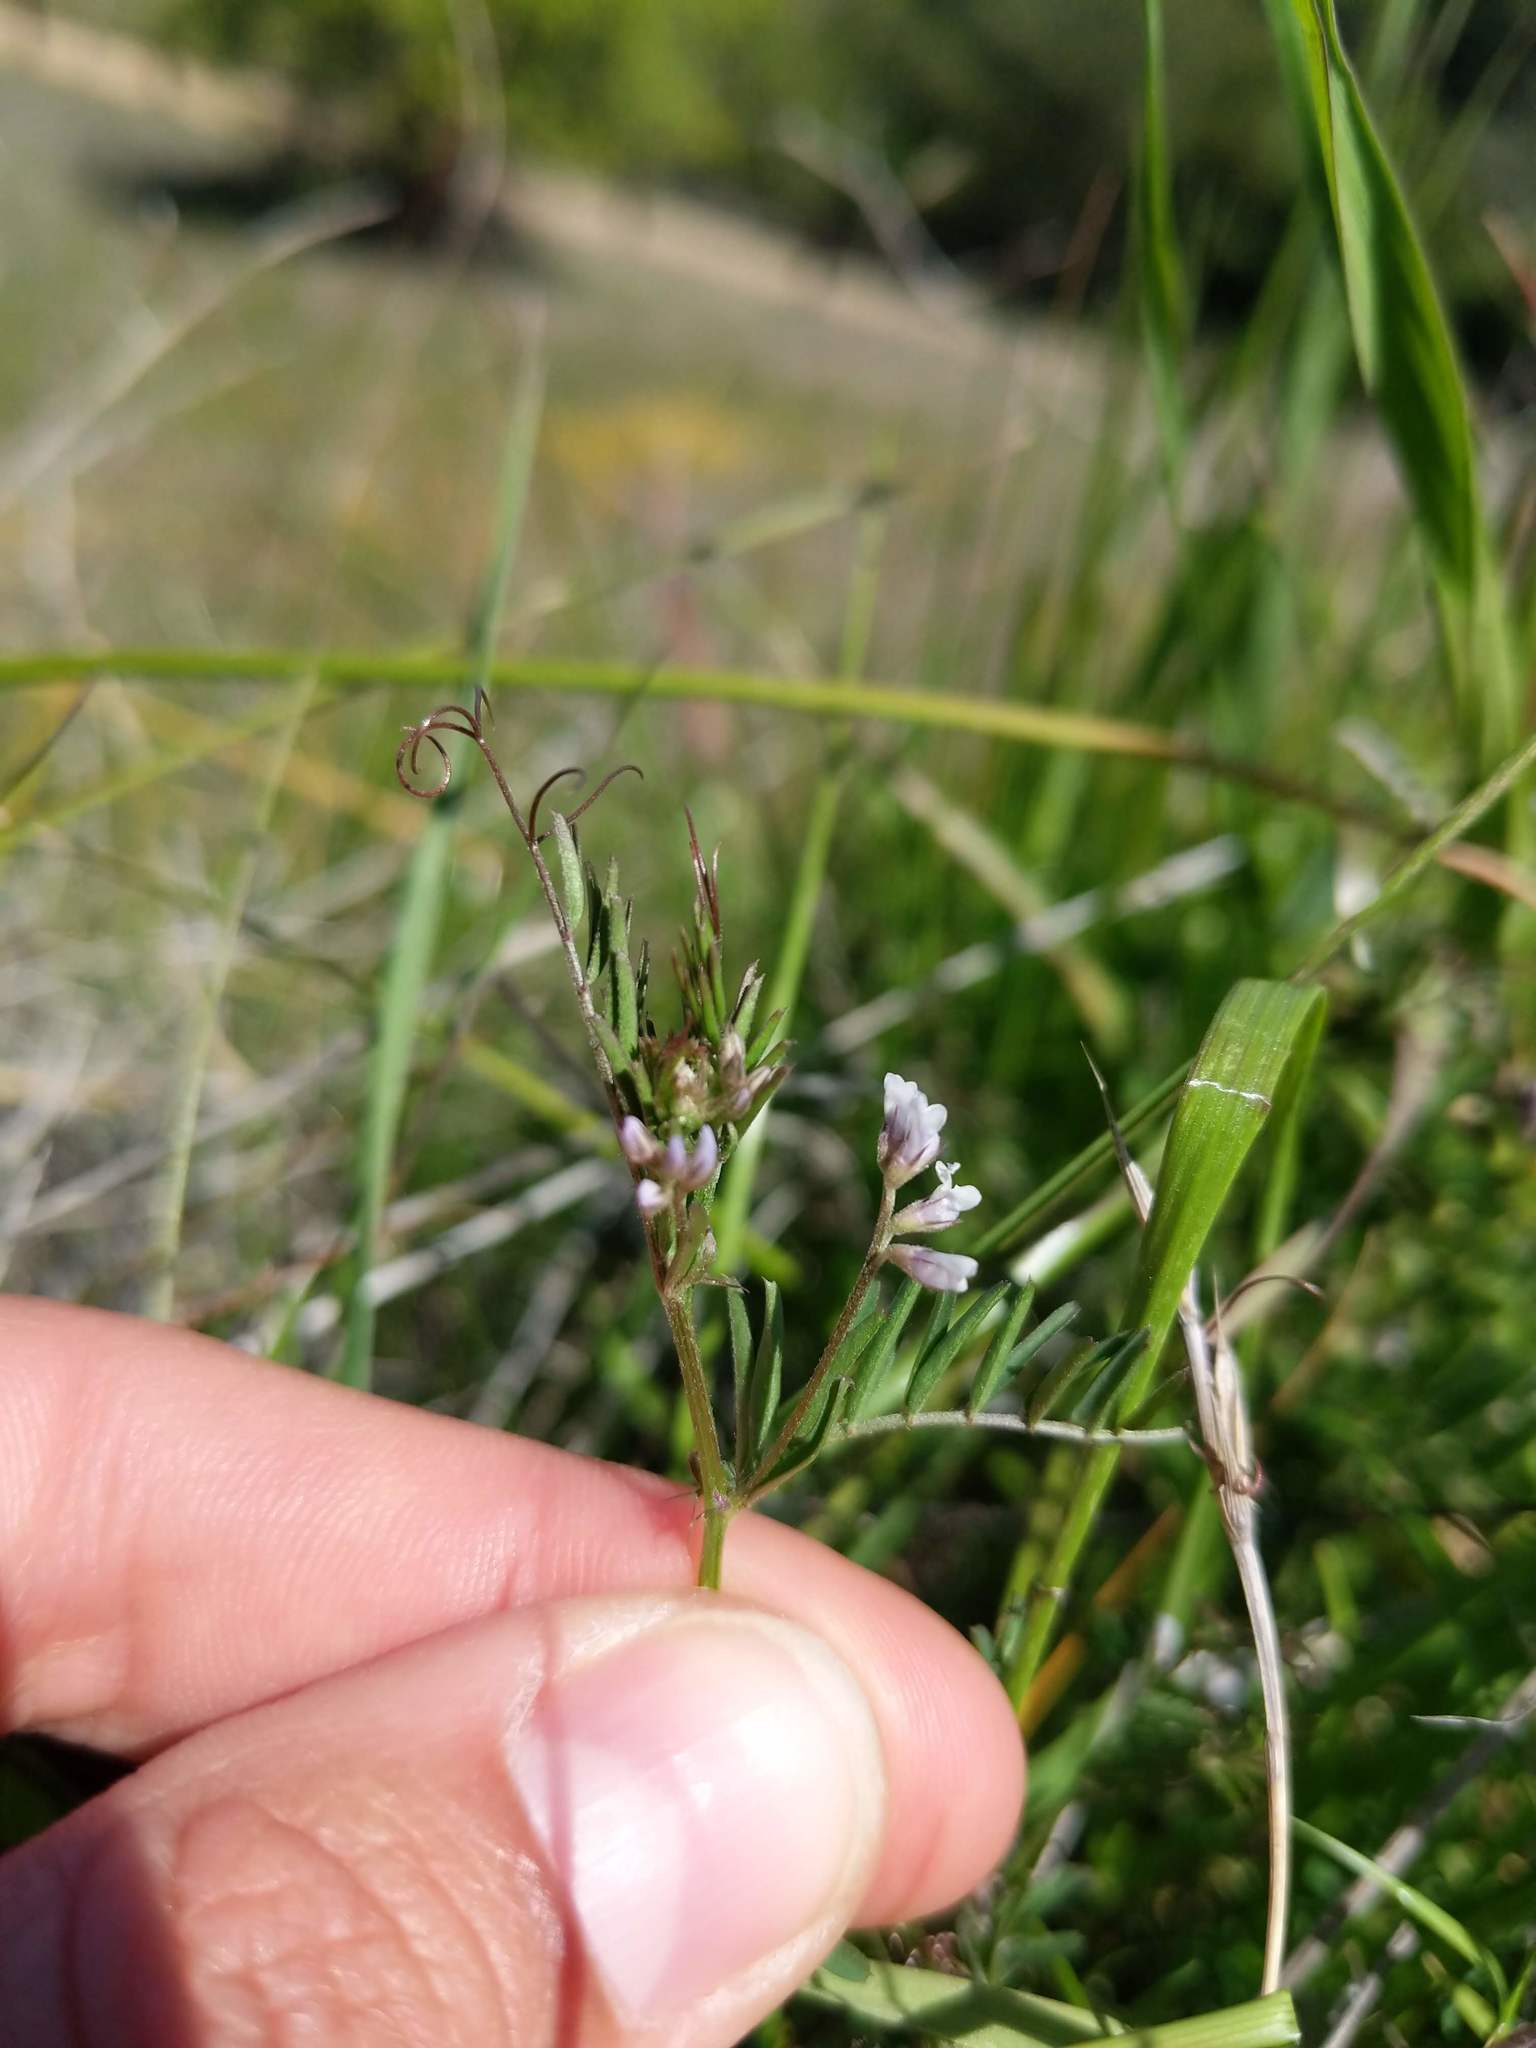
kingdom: Plantae
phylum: Tracheophyta
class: Magnoliopsida
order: Fabales
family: Fabaceae
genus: Vicia
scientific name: Vicia hirsuta
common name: Tiny vetch
